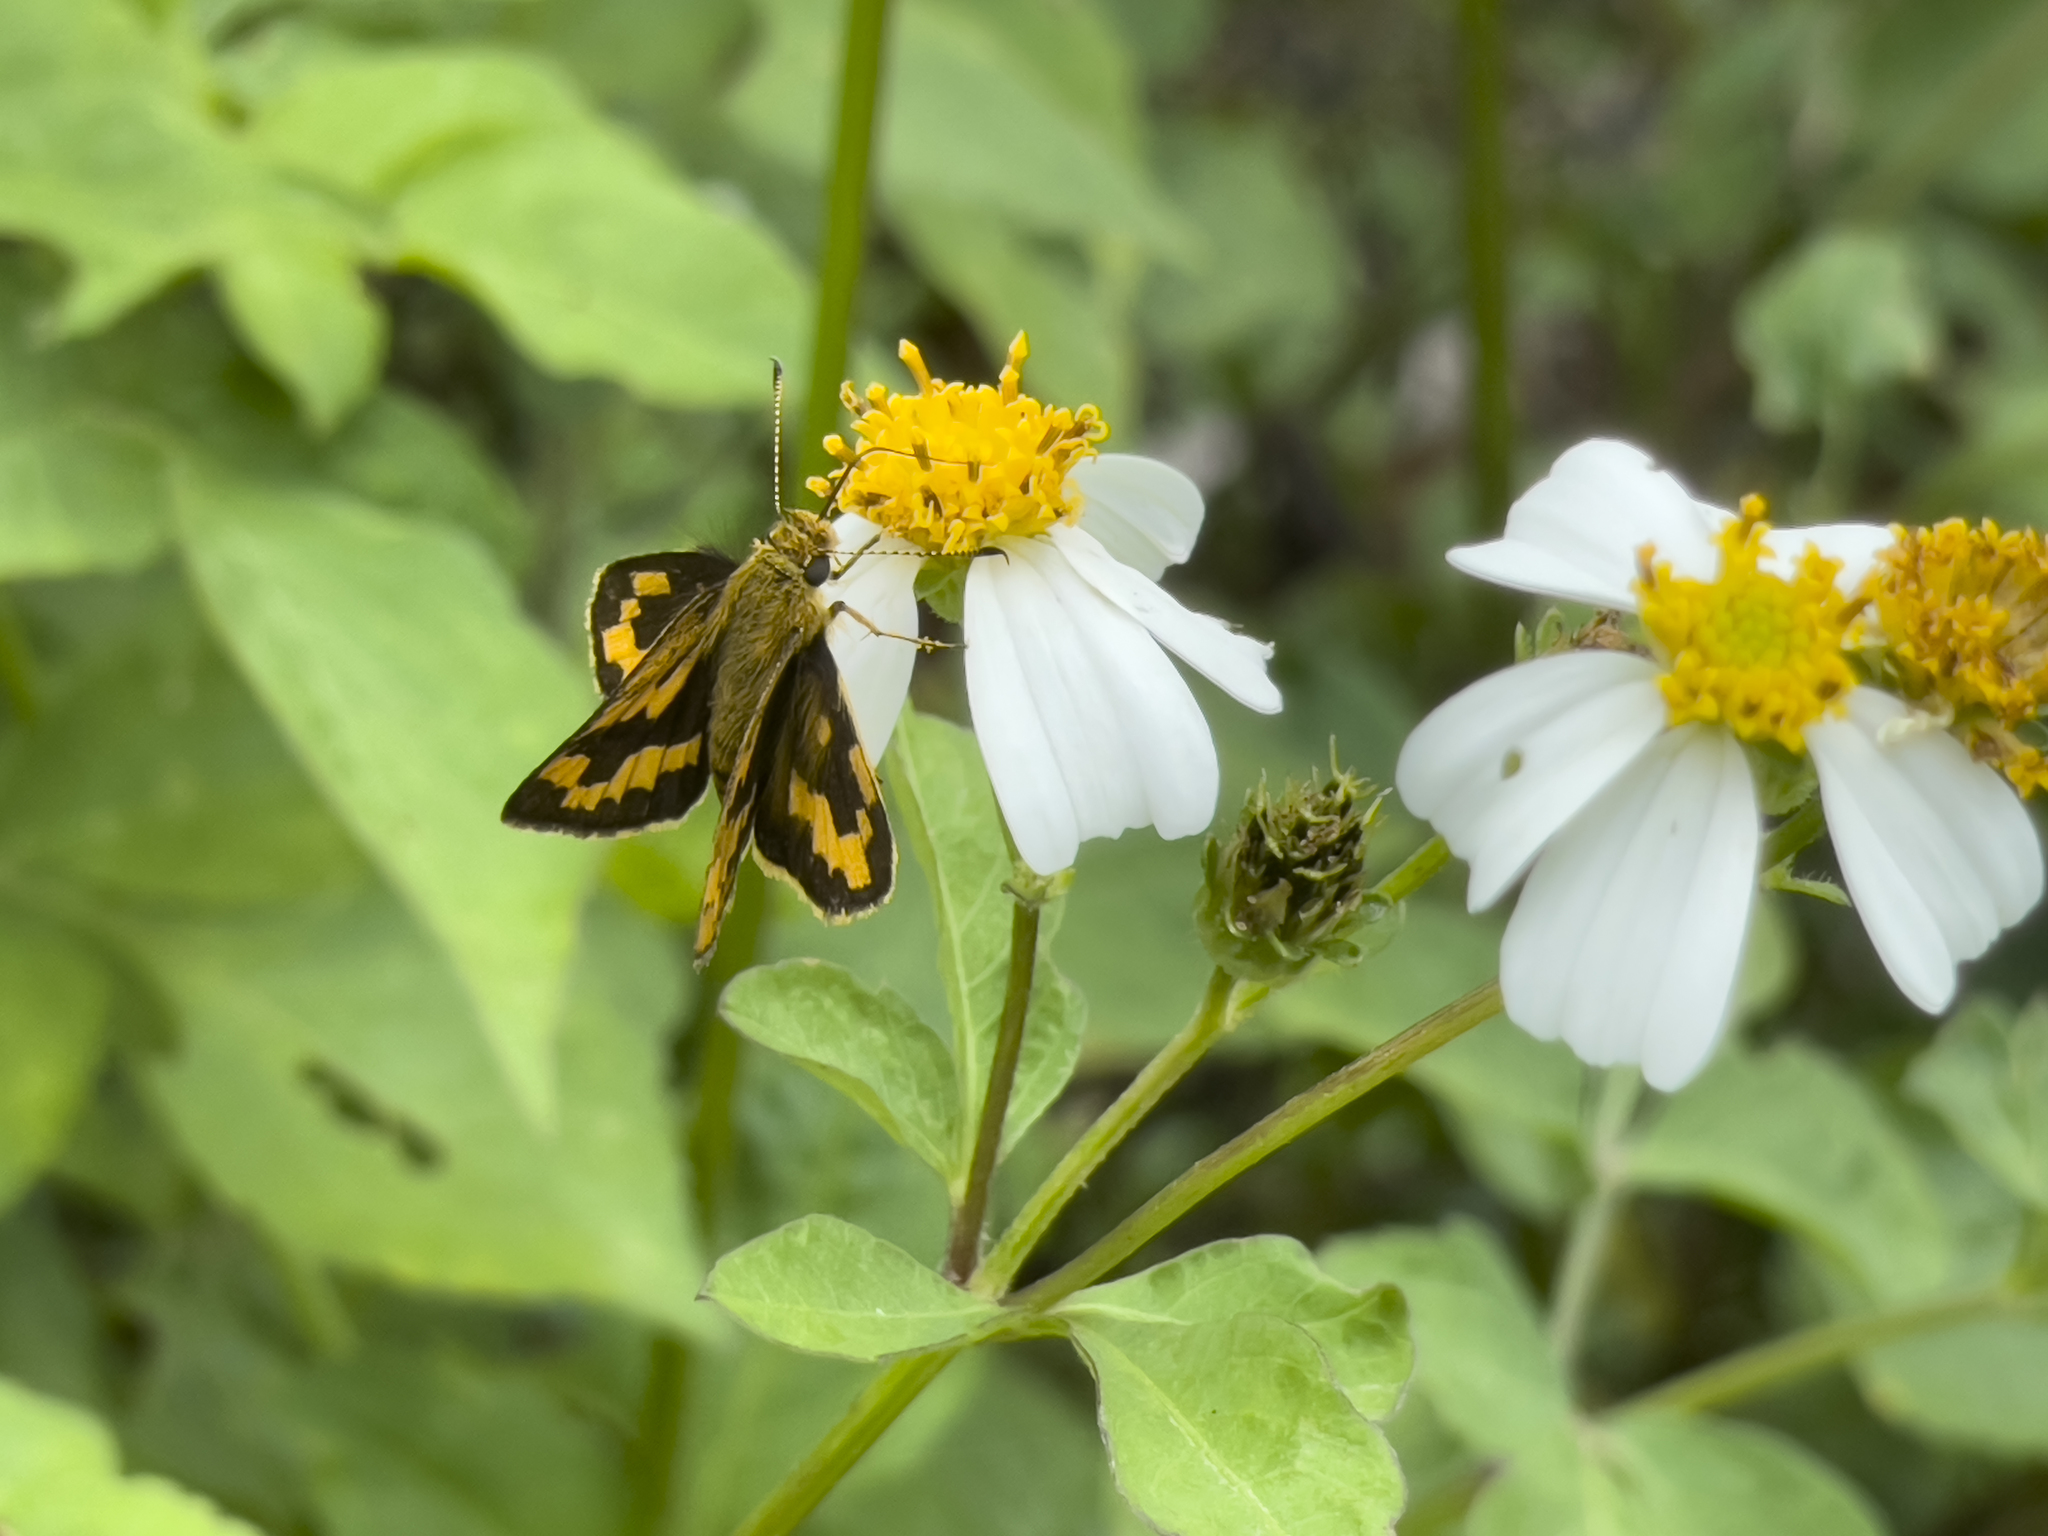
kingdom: Animalia
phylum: Arthropoda
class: Insecta
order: Lepidoptera
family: Hesperiidae
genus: Potanthus
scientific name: Potanthus pava
